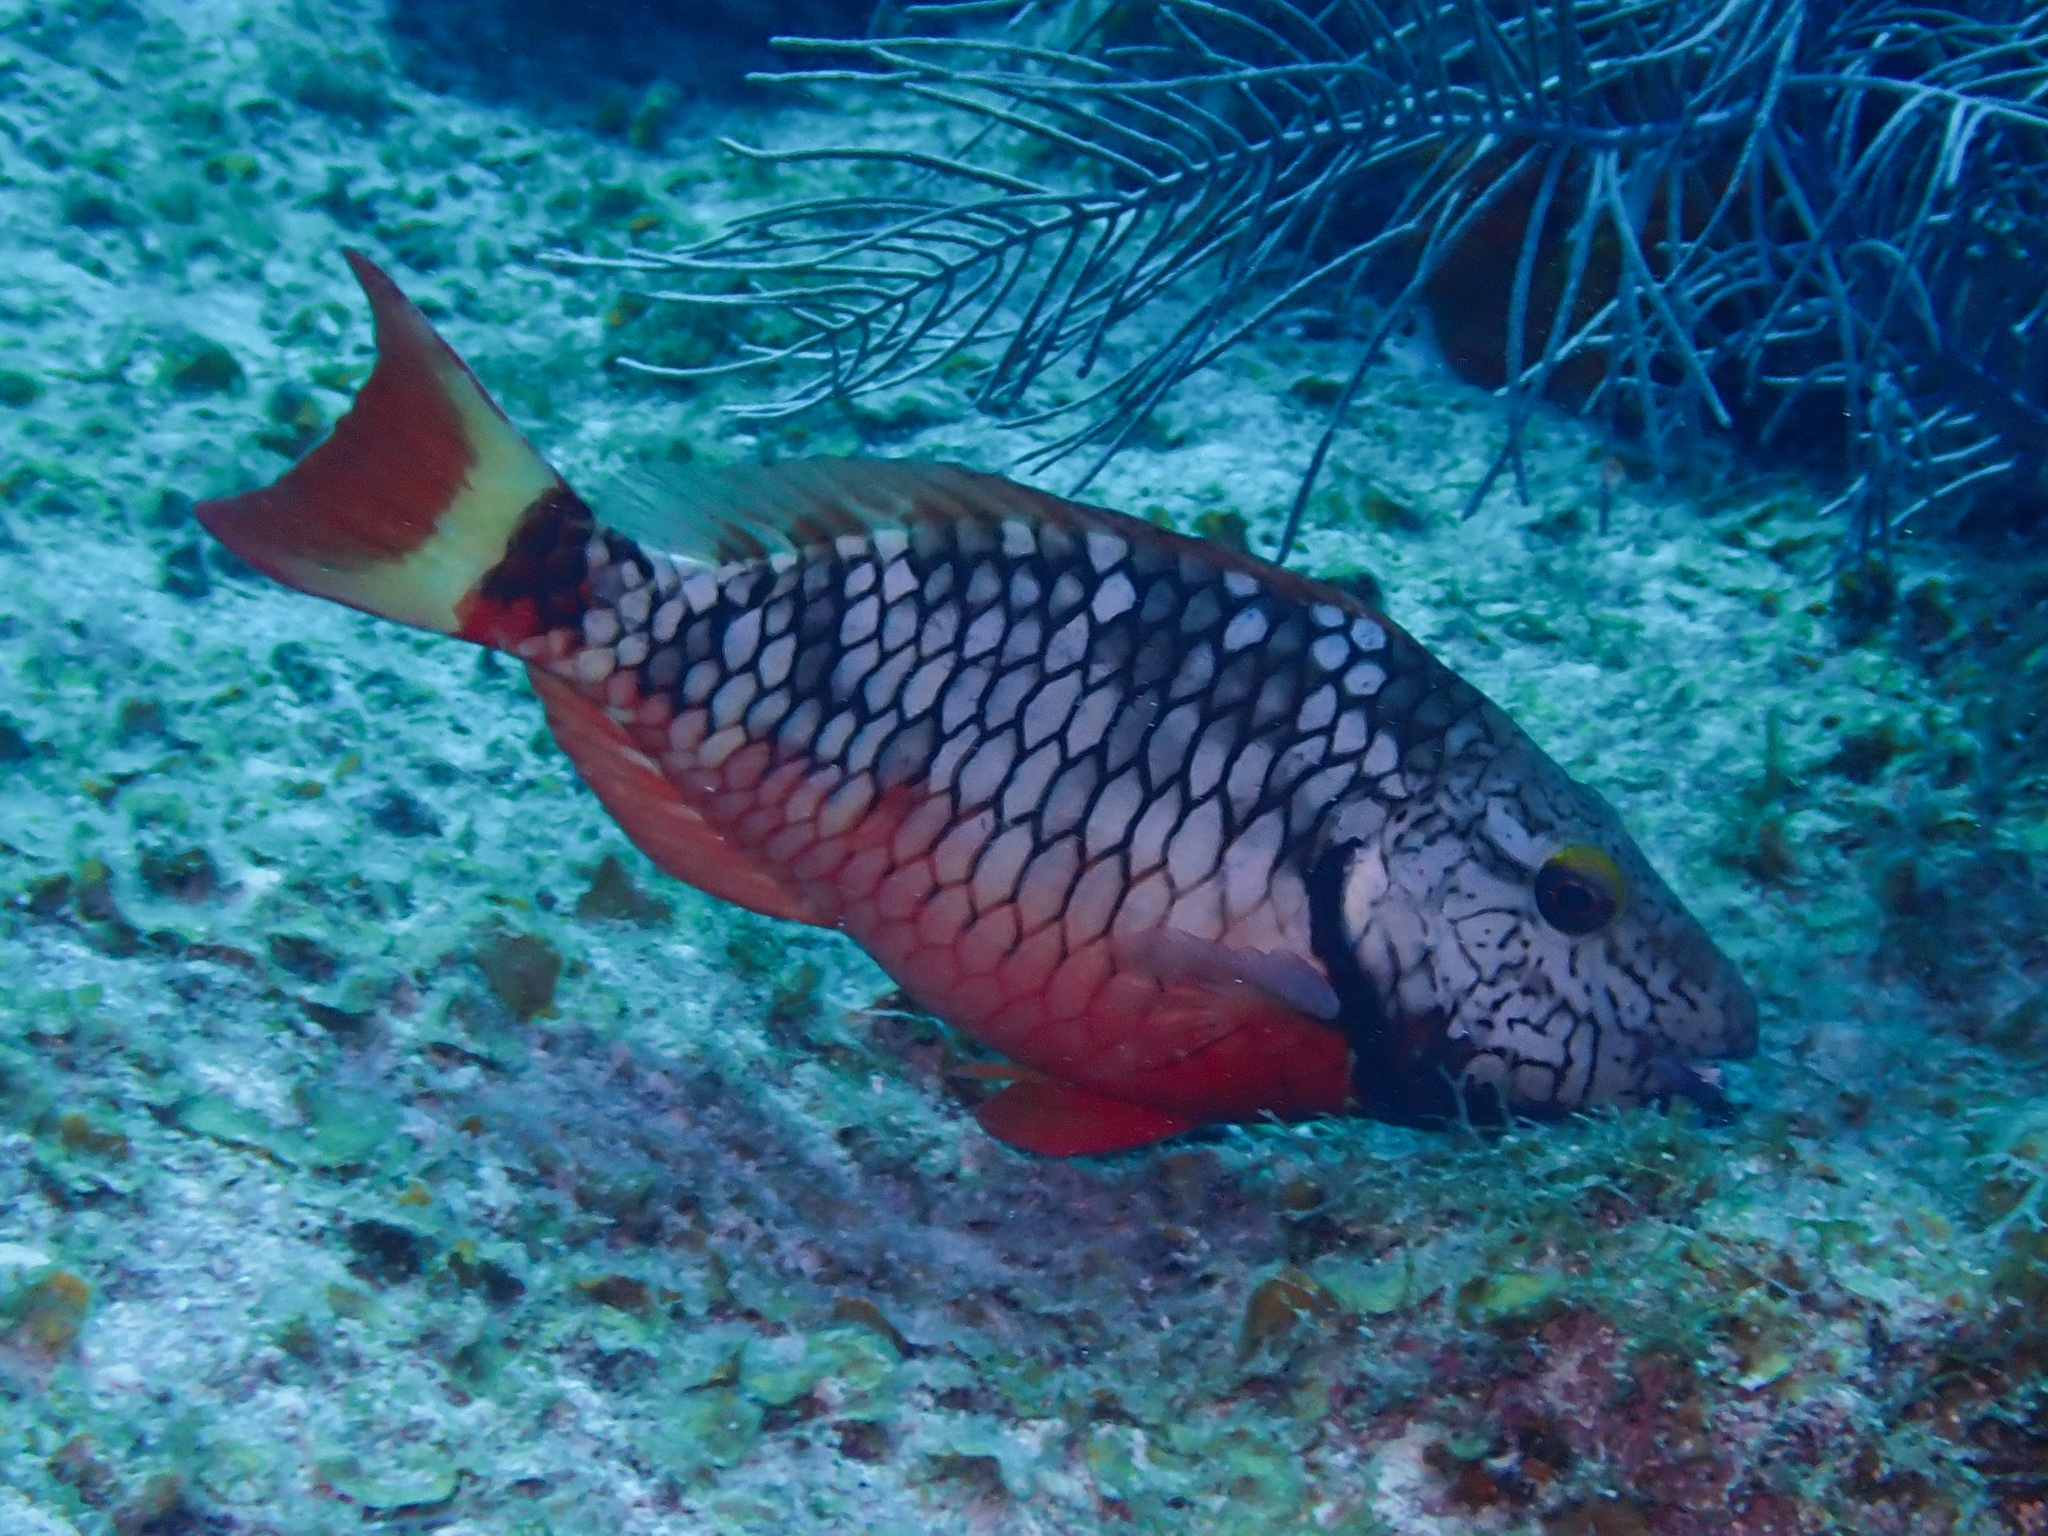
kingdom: Animalia
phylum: Chordata
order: Perciformes
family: Scaridae
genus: Sparisoma
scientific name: Sparisoma viride
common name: Stoplight parrotfish
